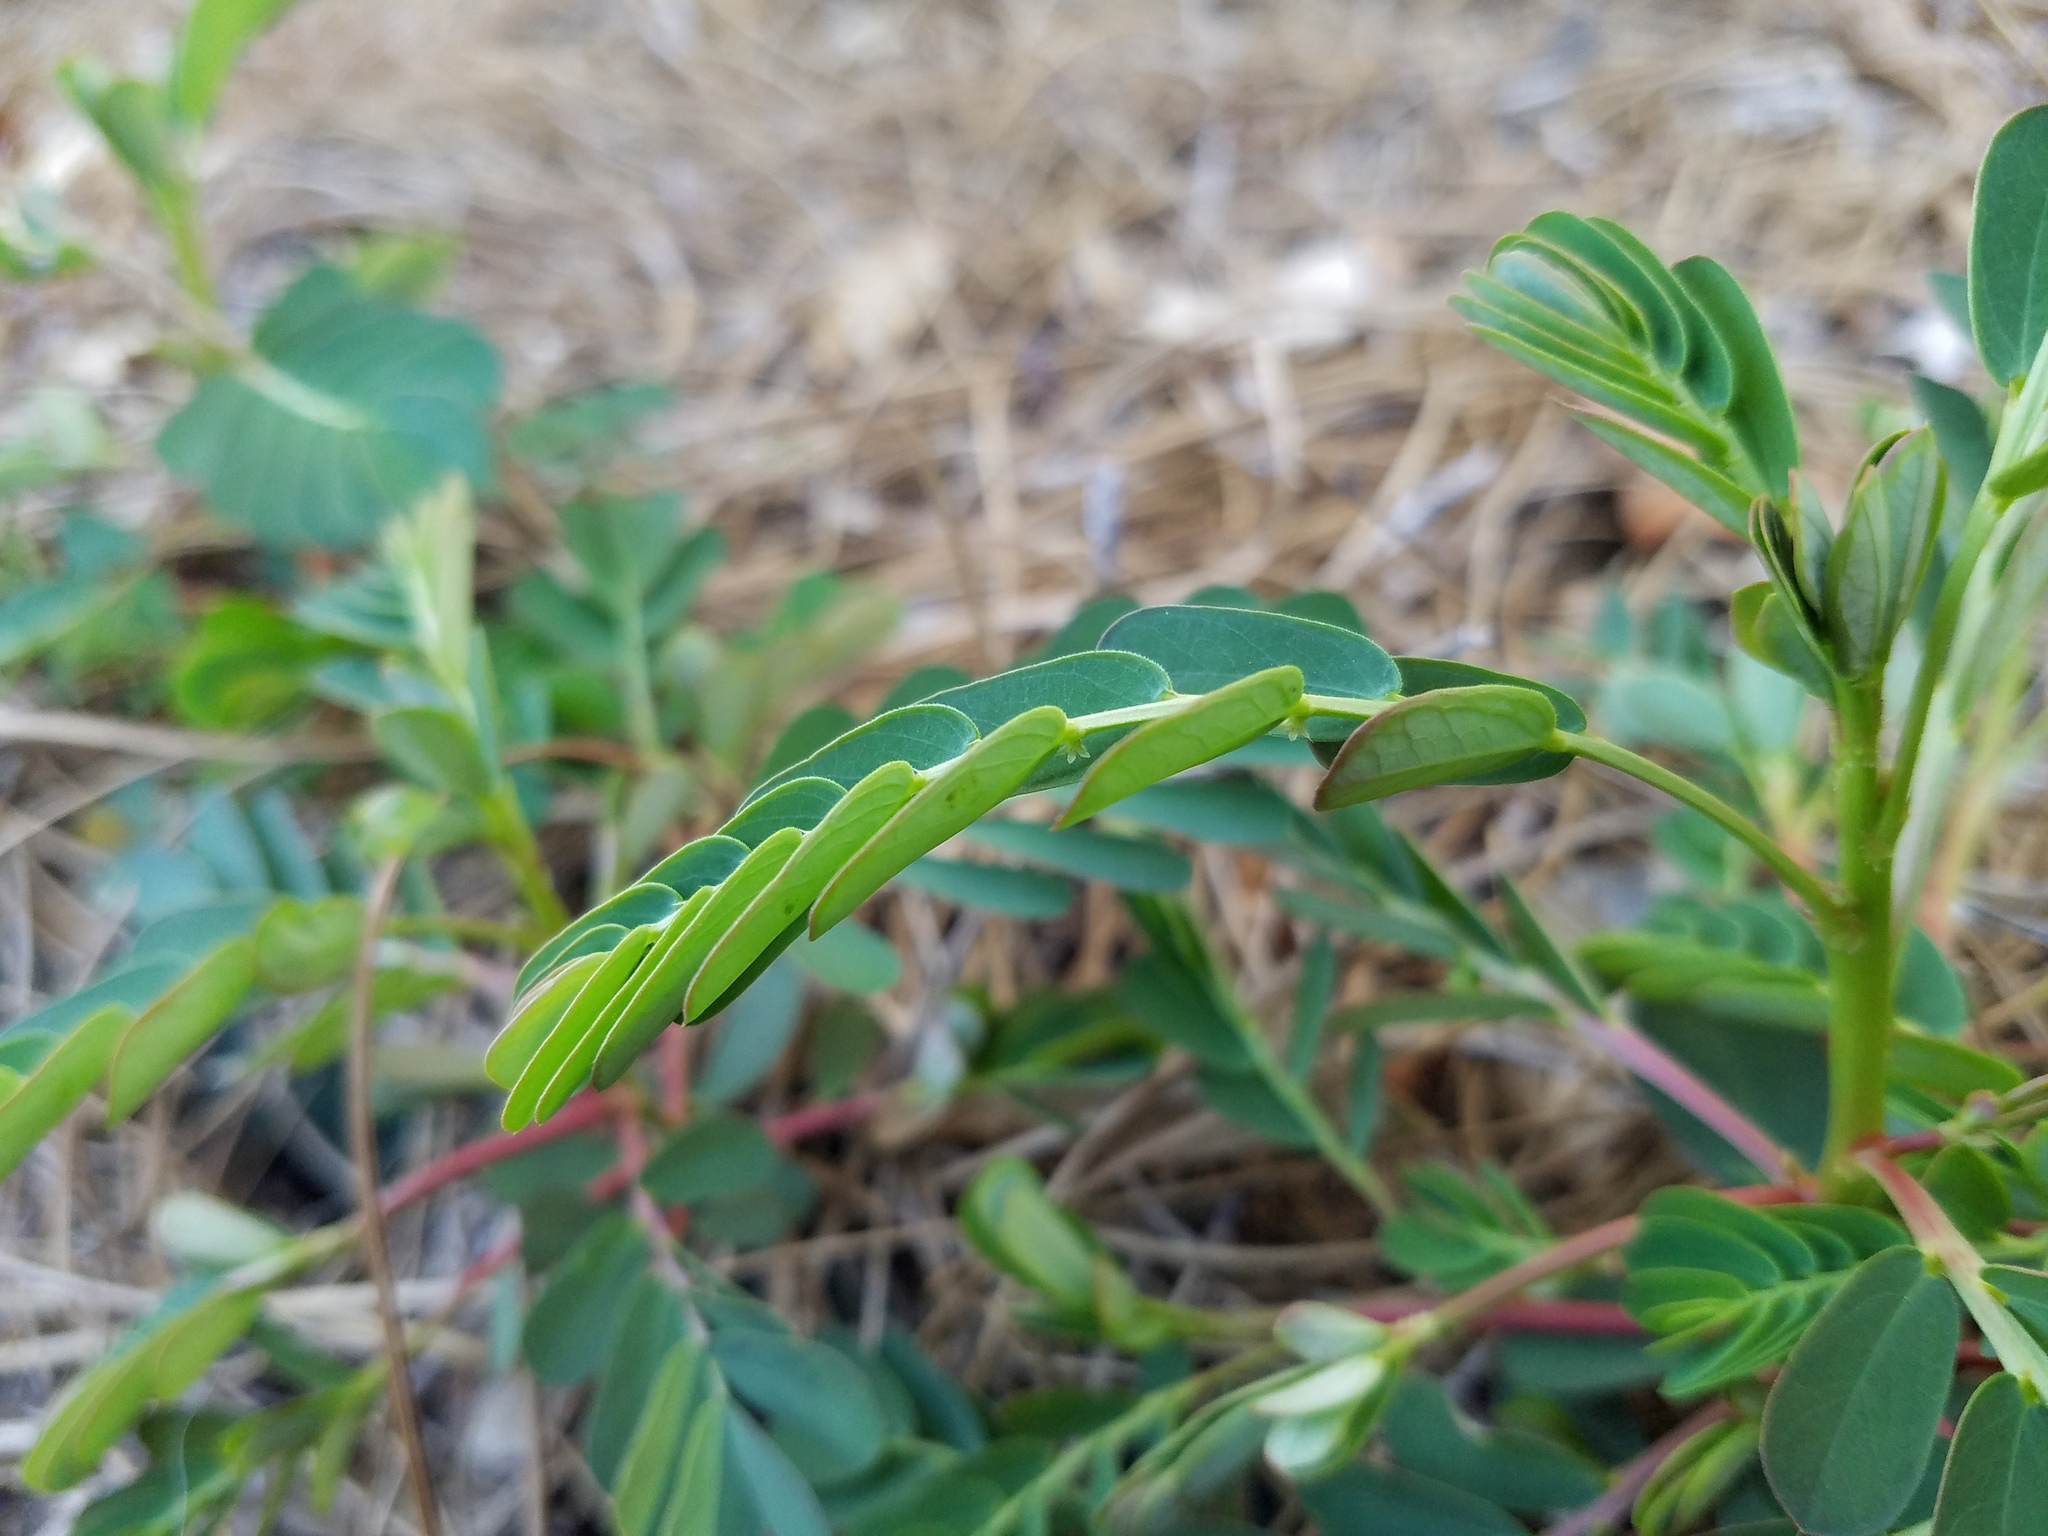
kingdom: Plantae
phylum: Tracheophyta
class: Magnoliopsida
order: Malpighiales
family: Phyllanthaceae
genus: Phyllanthus
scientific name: Phyllanthus urinaria
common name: Chamber bitter
